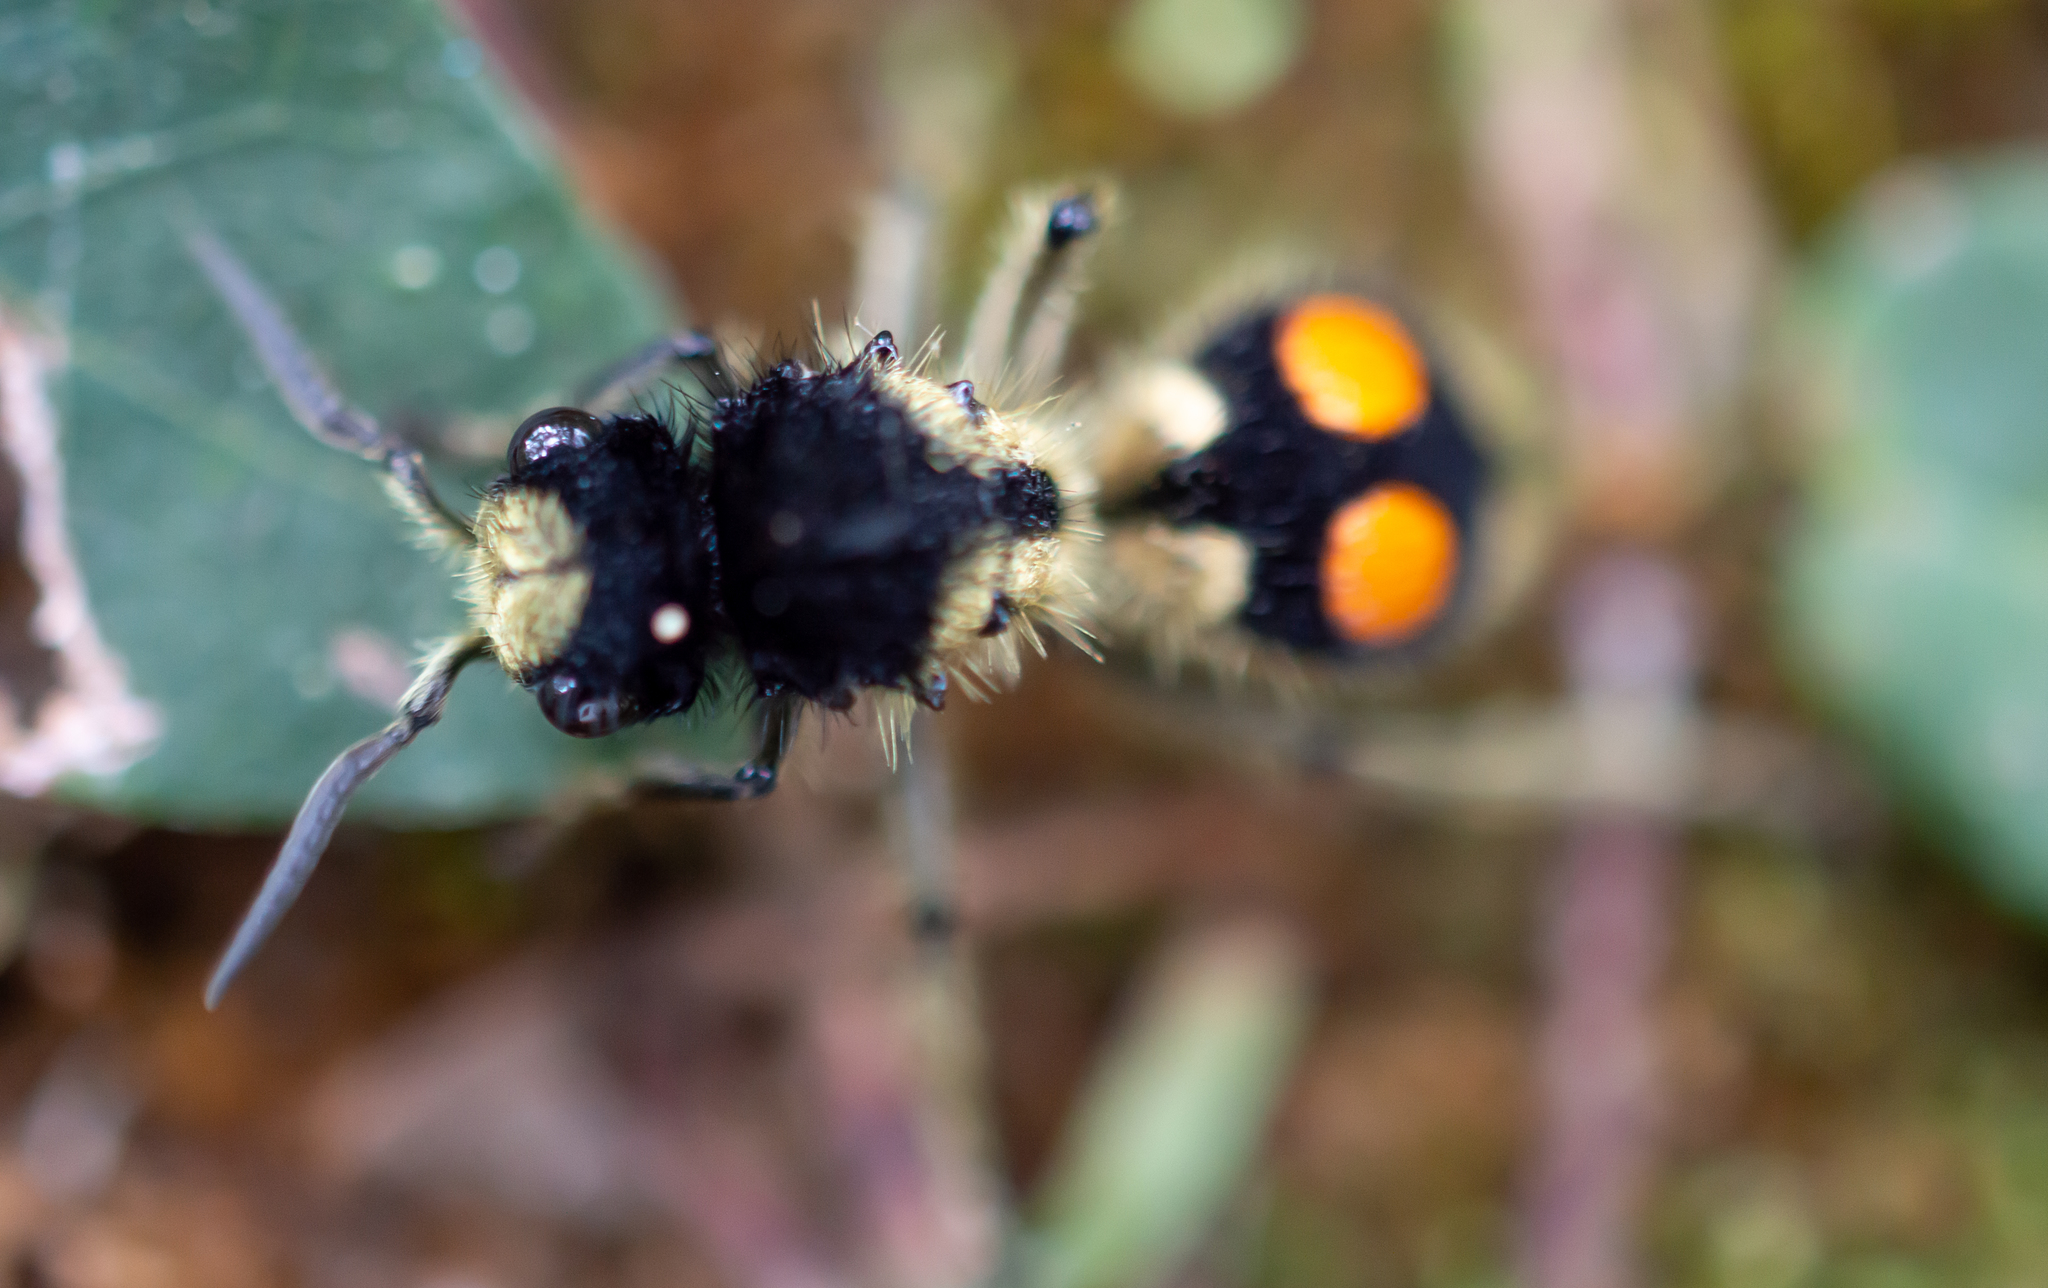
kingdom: Animalia
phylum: Arthropoda
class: Insecta
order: Hymenoptera
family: Mutillidae
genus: Hoplomutilla
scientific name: Hoplomutilla
